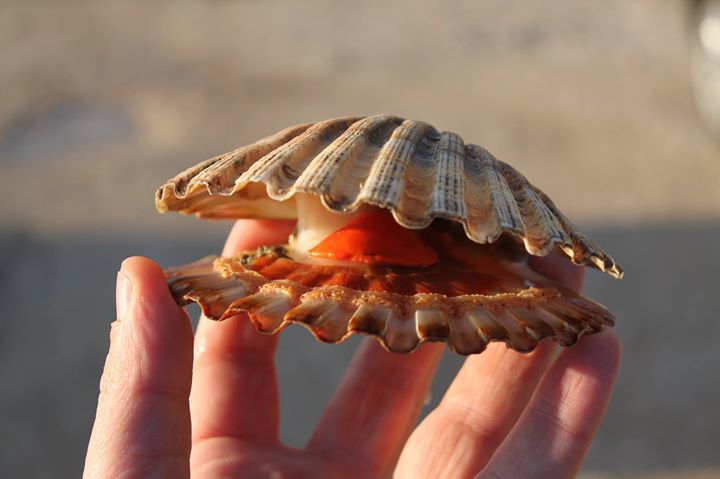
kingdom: Animalia
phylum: Mollusca
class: Bivalvia
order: Pectinida
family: Pectinidae
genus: Pecten
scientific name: Pecten jacobaeus
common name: St.james's scallop
